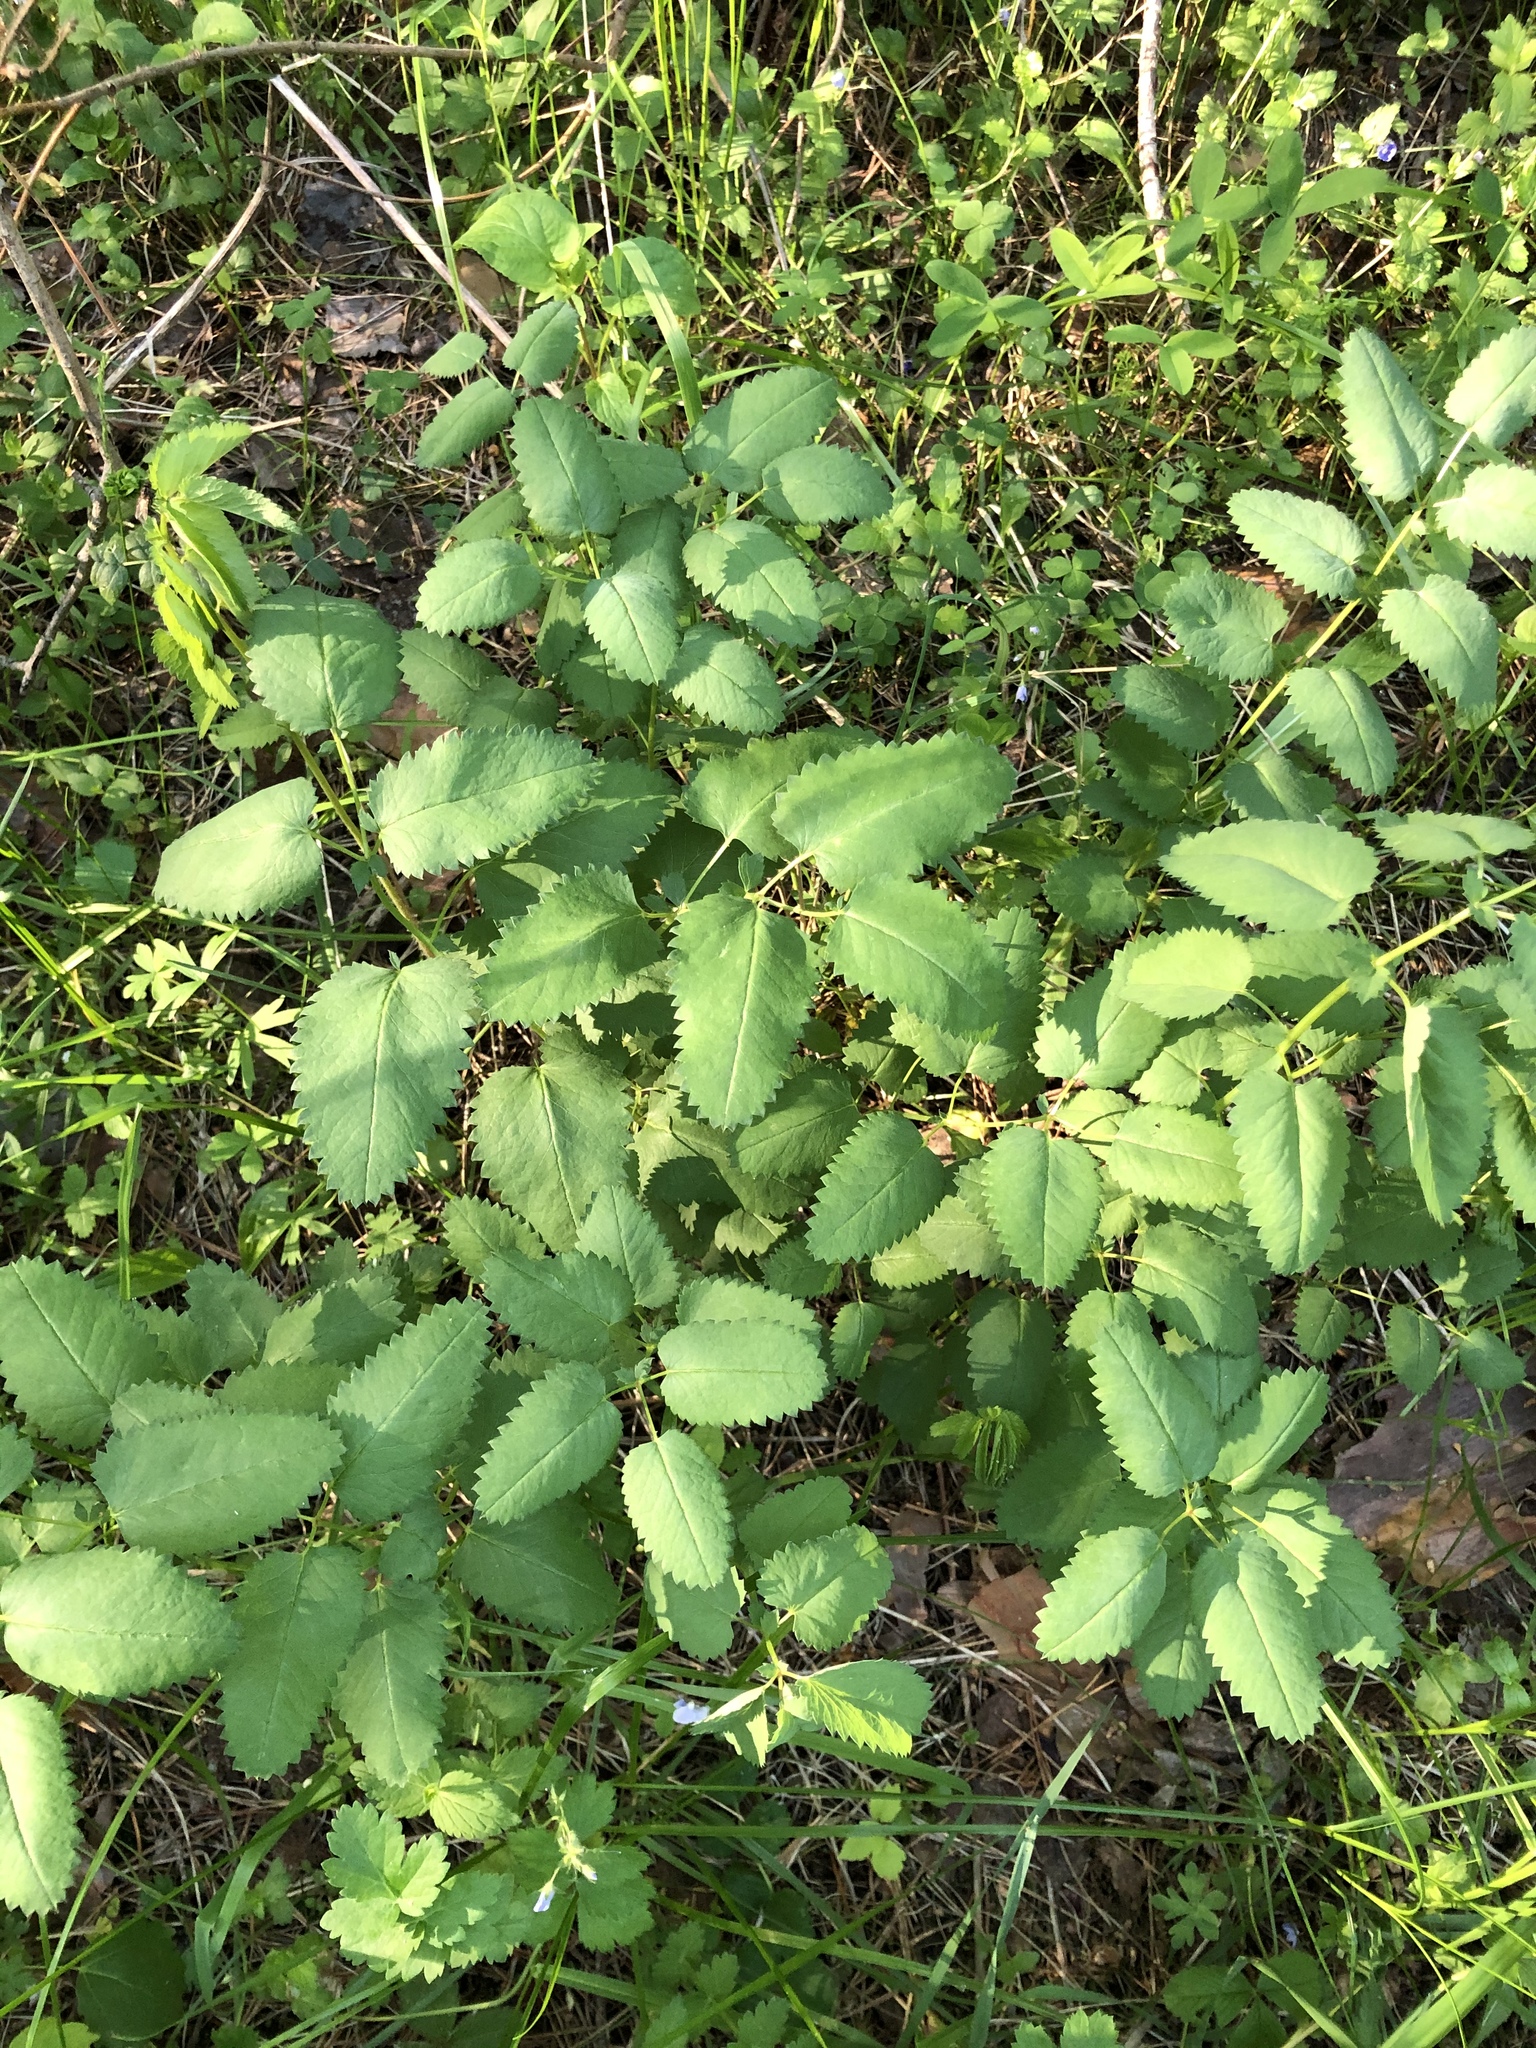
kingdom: Plantae
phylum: Tracheophyta
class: Magnoliopsida
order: Rosales
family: Rosaceae
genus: Sanguisorba
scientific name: Sanguisorba officinalis
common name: Great burnet
